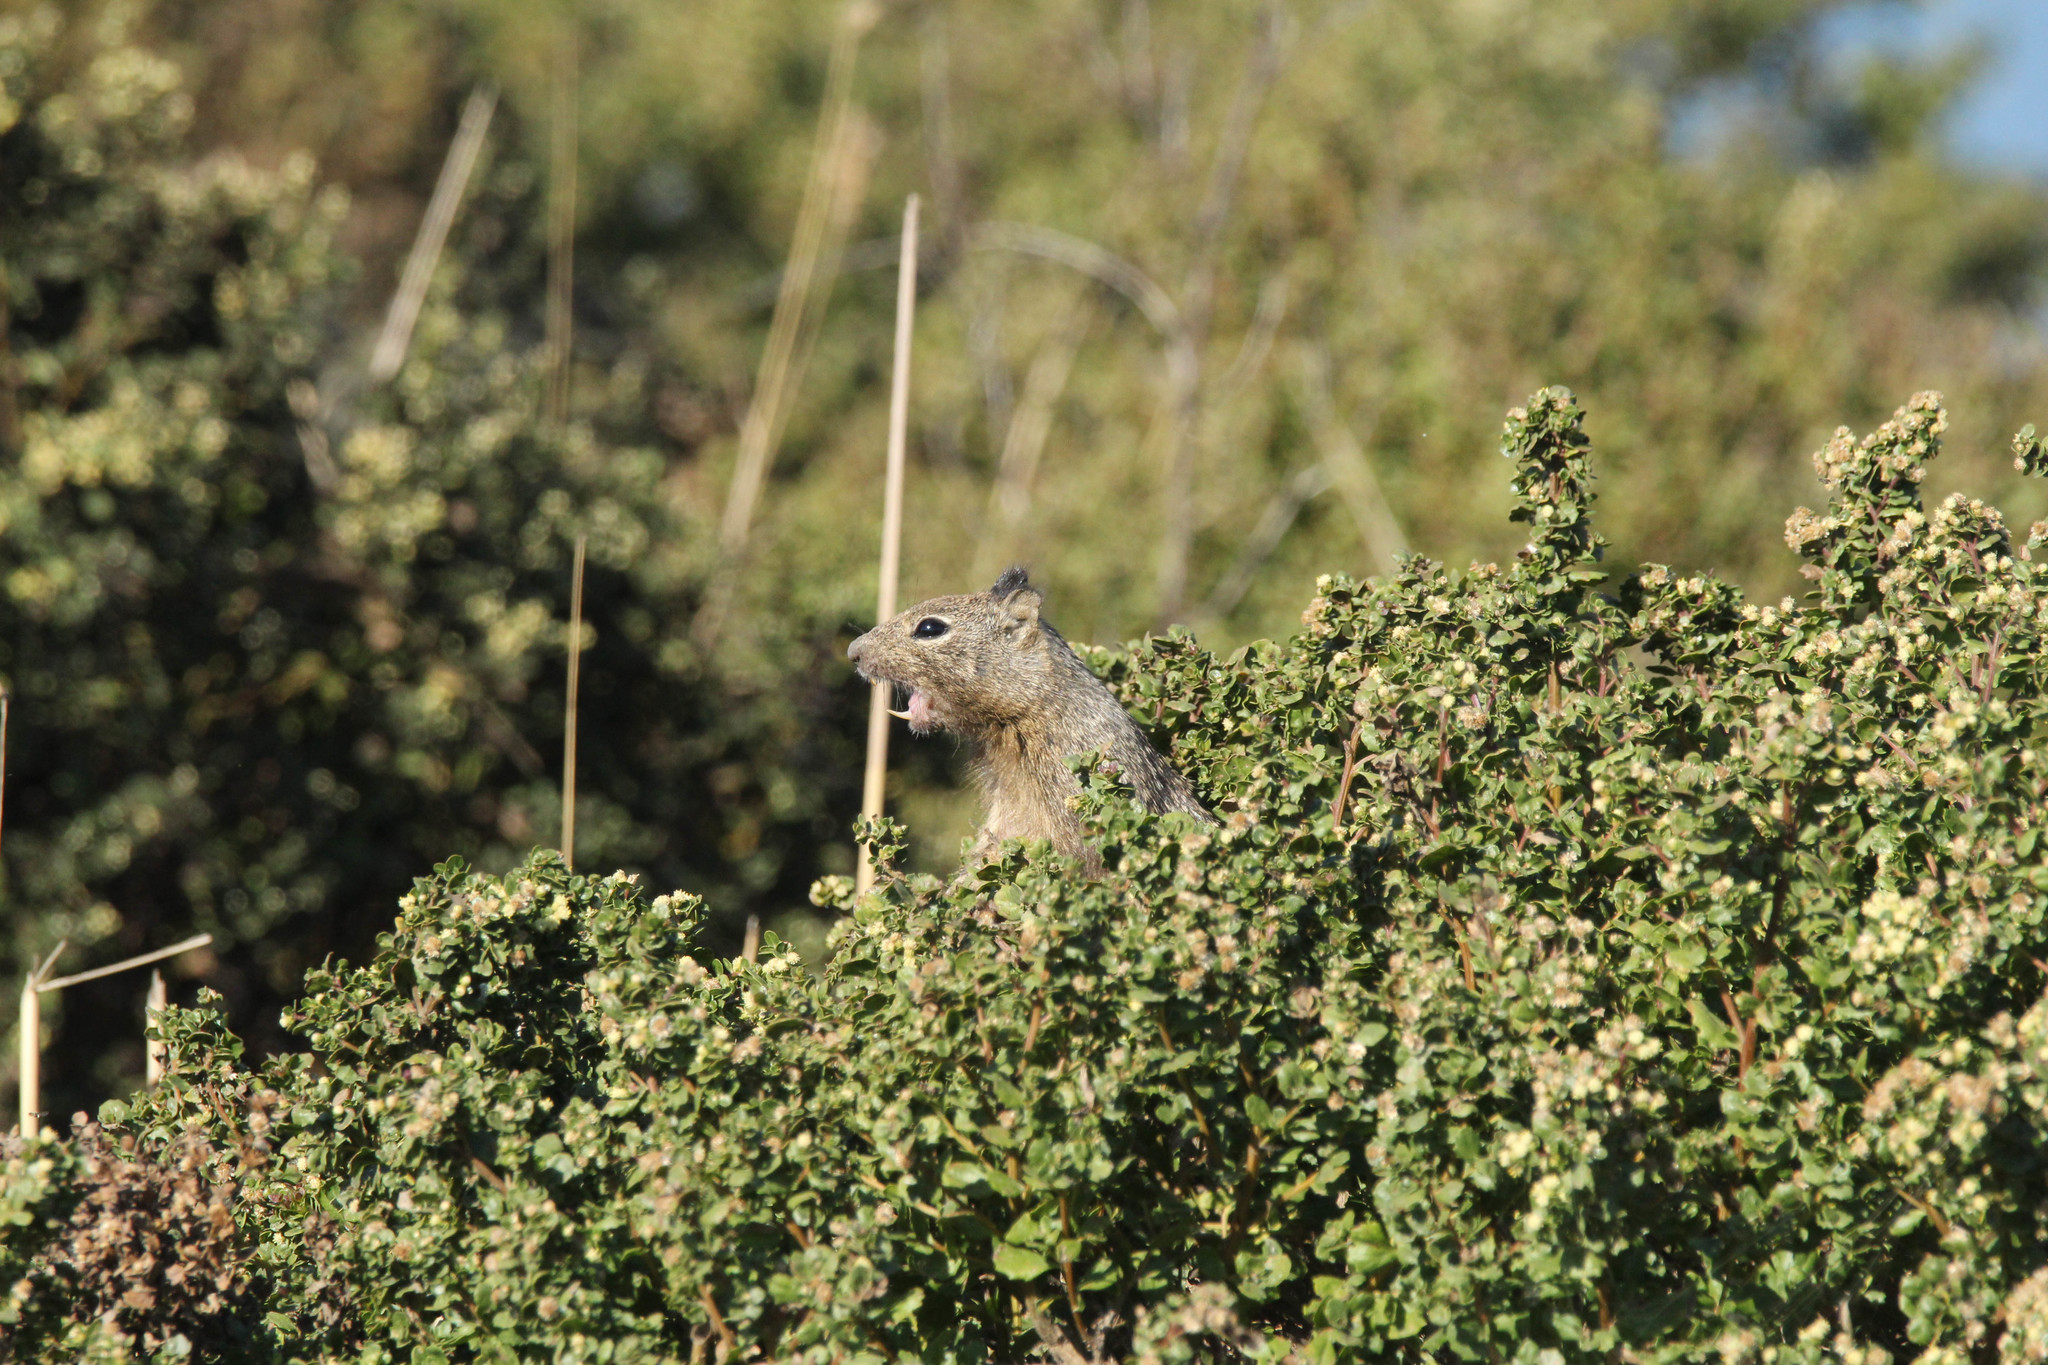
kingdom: Animalia
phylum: Chordata
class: Mammalia
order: Rodentia
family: Sciuridae
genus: Otospermophilus
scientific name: Otospermophilus beecheyi
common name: California ground squirrel
